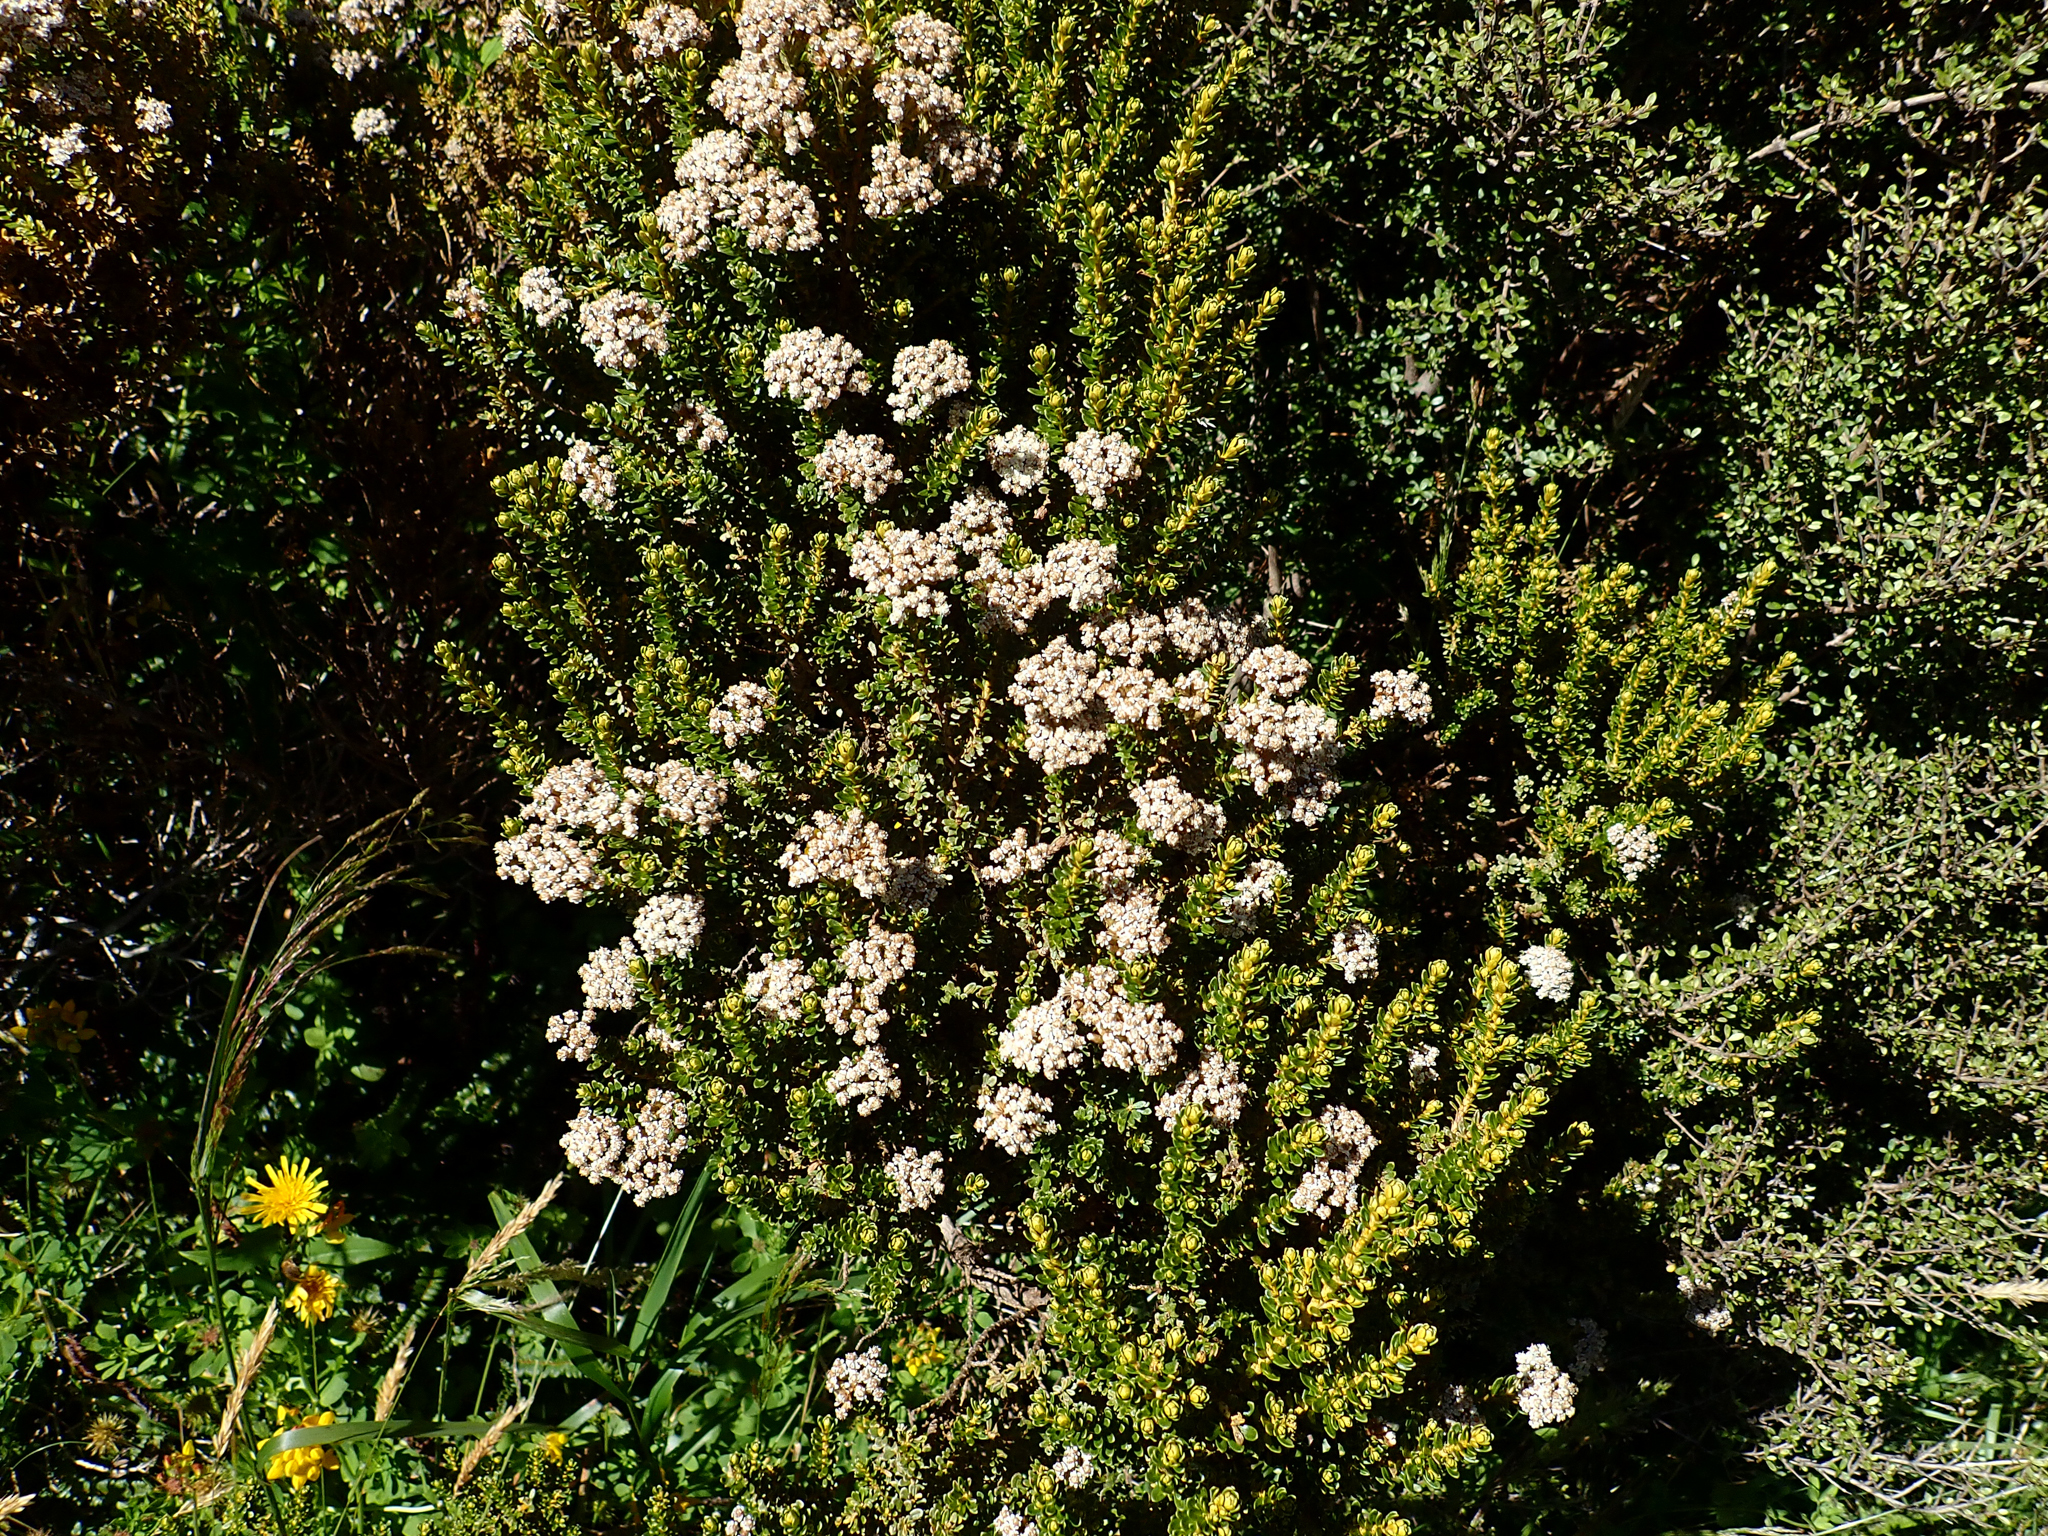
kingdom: Plantae
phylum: Tracheophyta
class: Magnoliopsida
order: Asterales
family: Asteraceae
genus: Ozothamnus
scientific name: Ozothamnus leptophyllus
